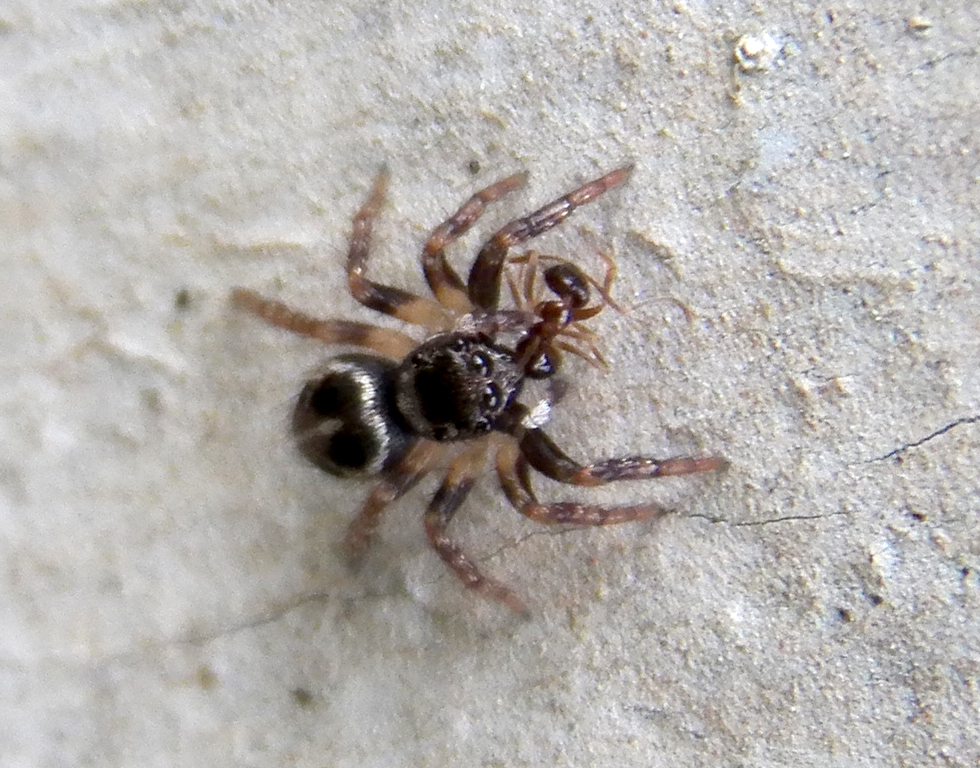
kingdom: Animalia
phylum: Arthropoda
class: Arachnida
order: Araneae
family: Salticidae
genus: Anasaitis
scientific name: Anasaitis canosa
